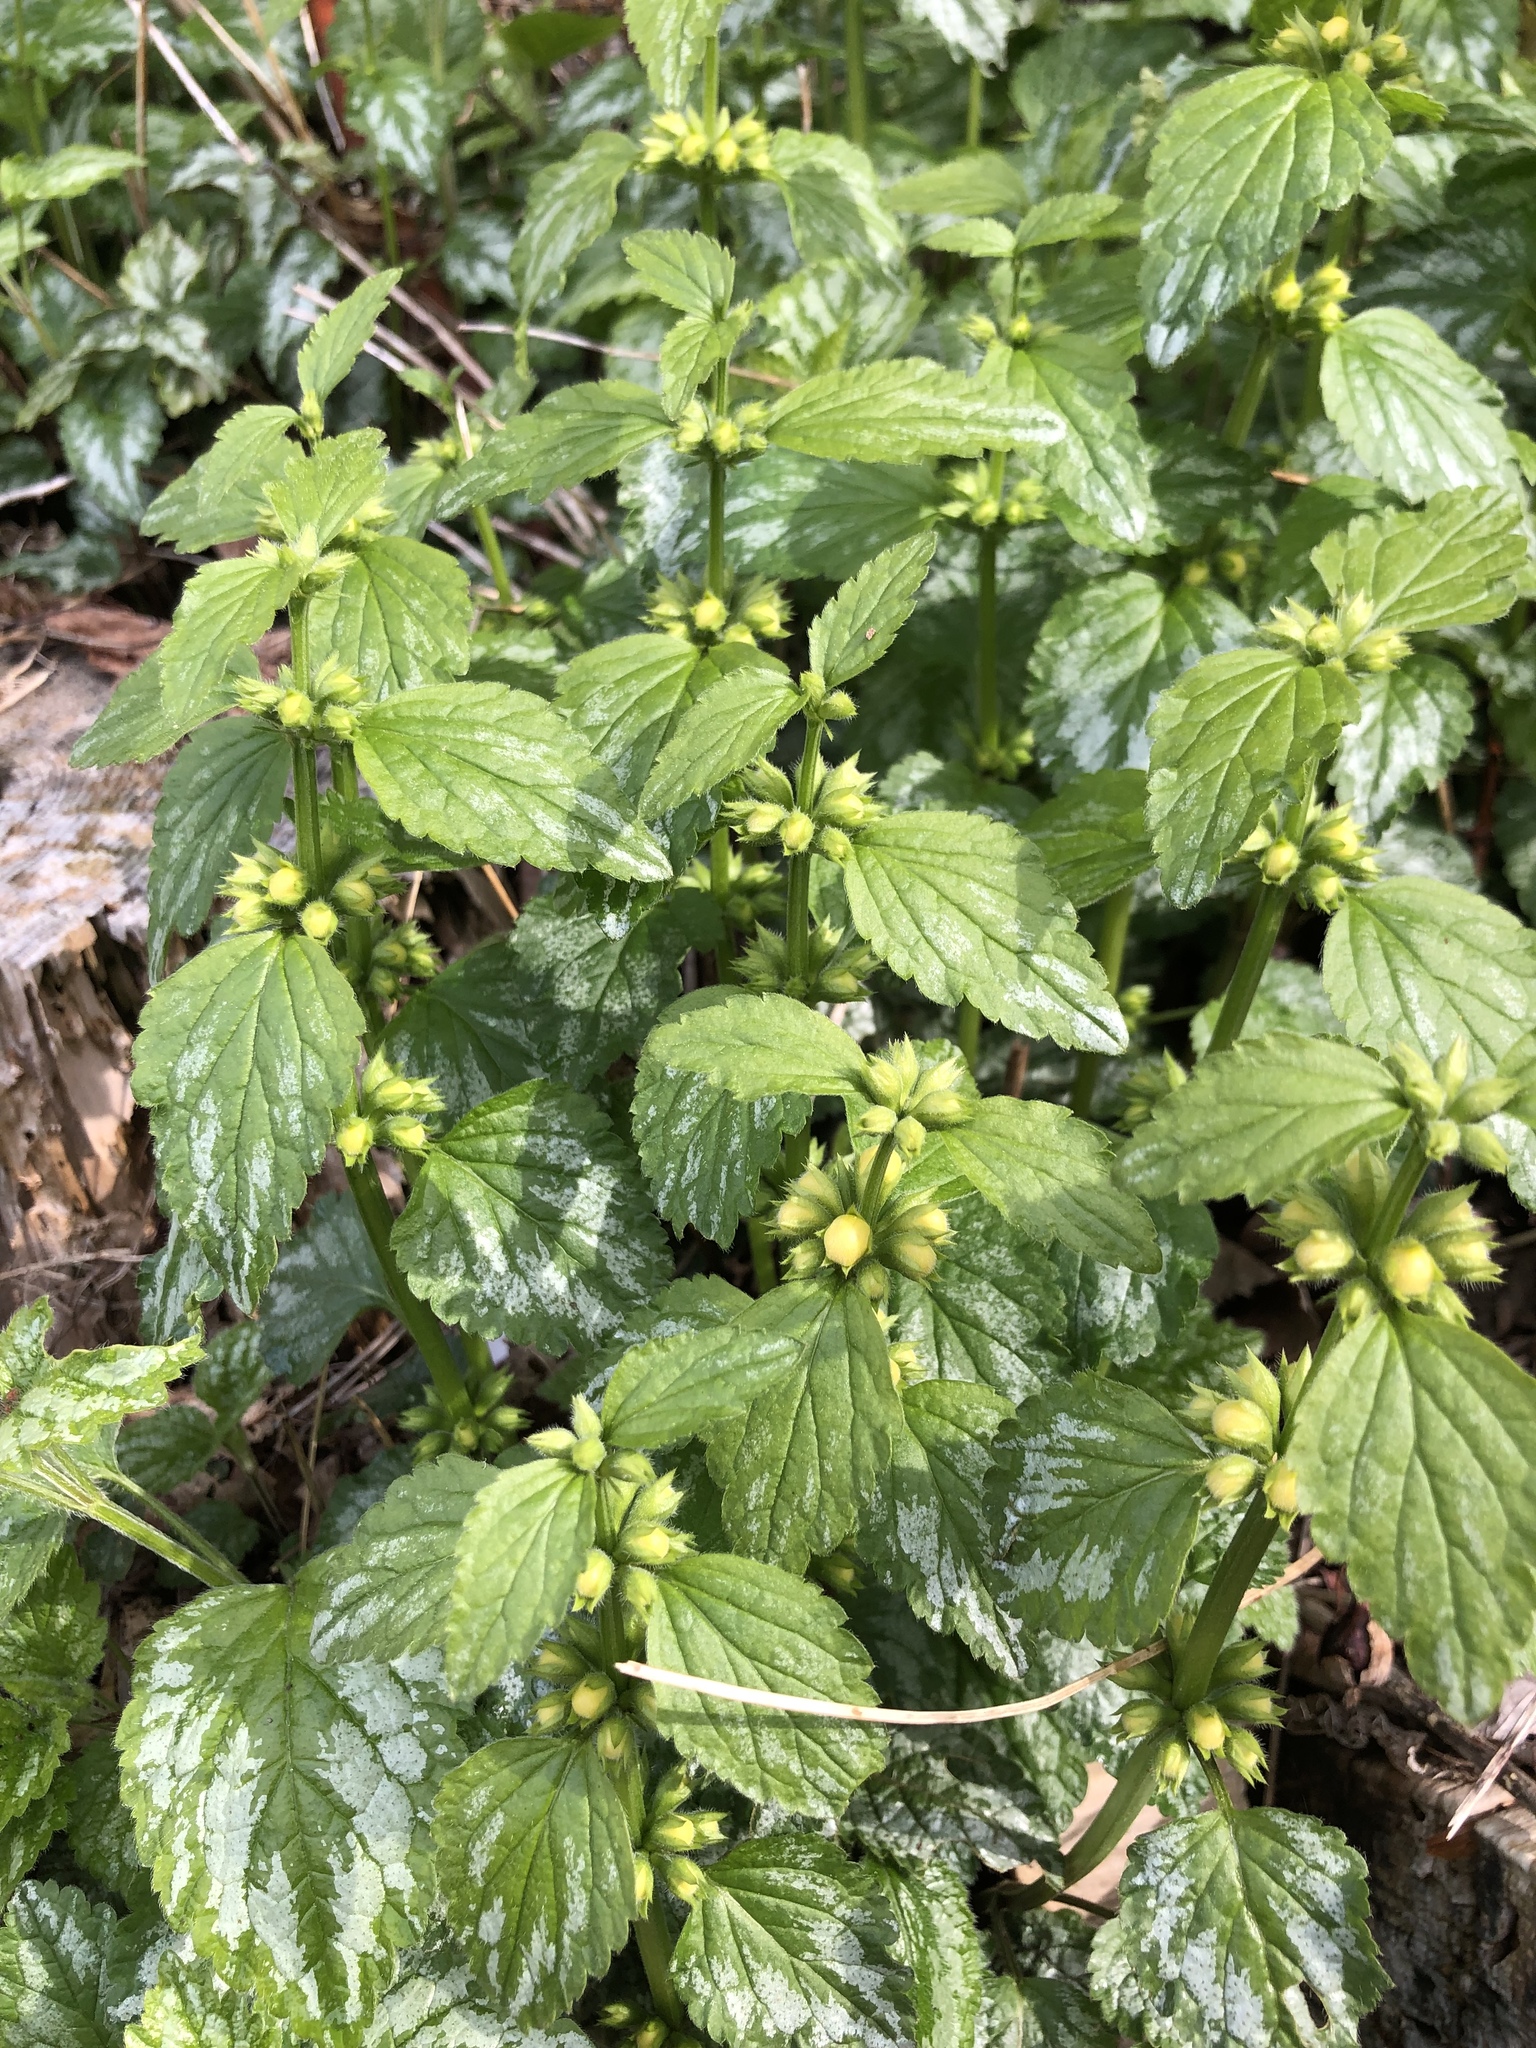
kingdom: Plantae
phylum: Tracheophyta
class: Magnoliopsida
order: Lamiales
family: Lamiaceae
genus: Lamium
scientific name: Lamium galeobdolon
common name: Yellow archangel
